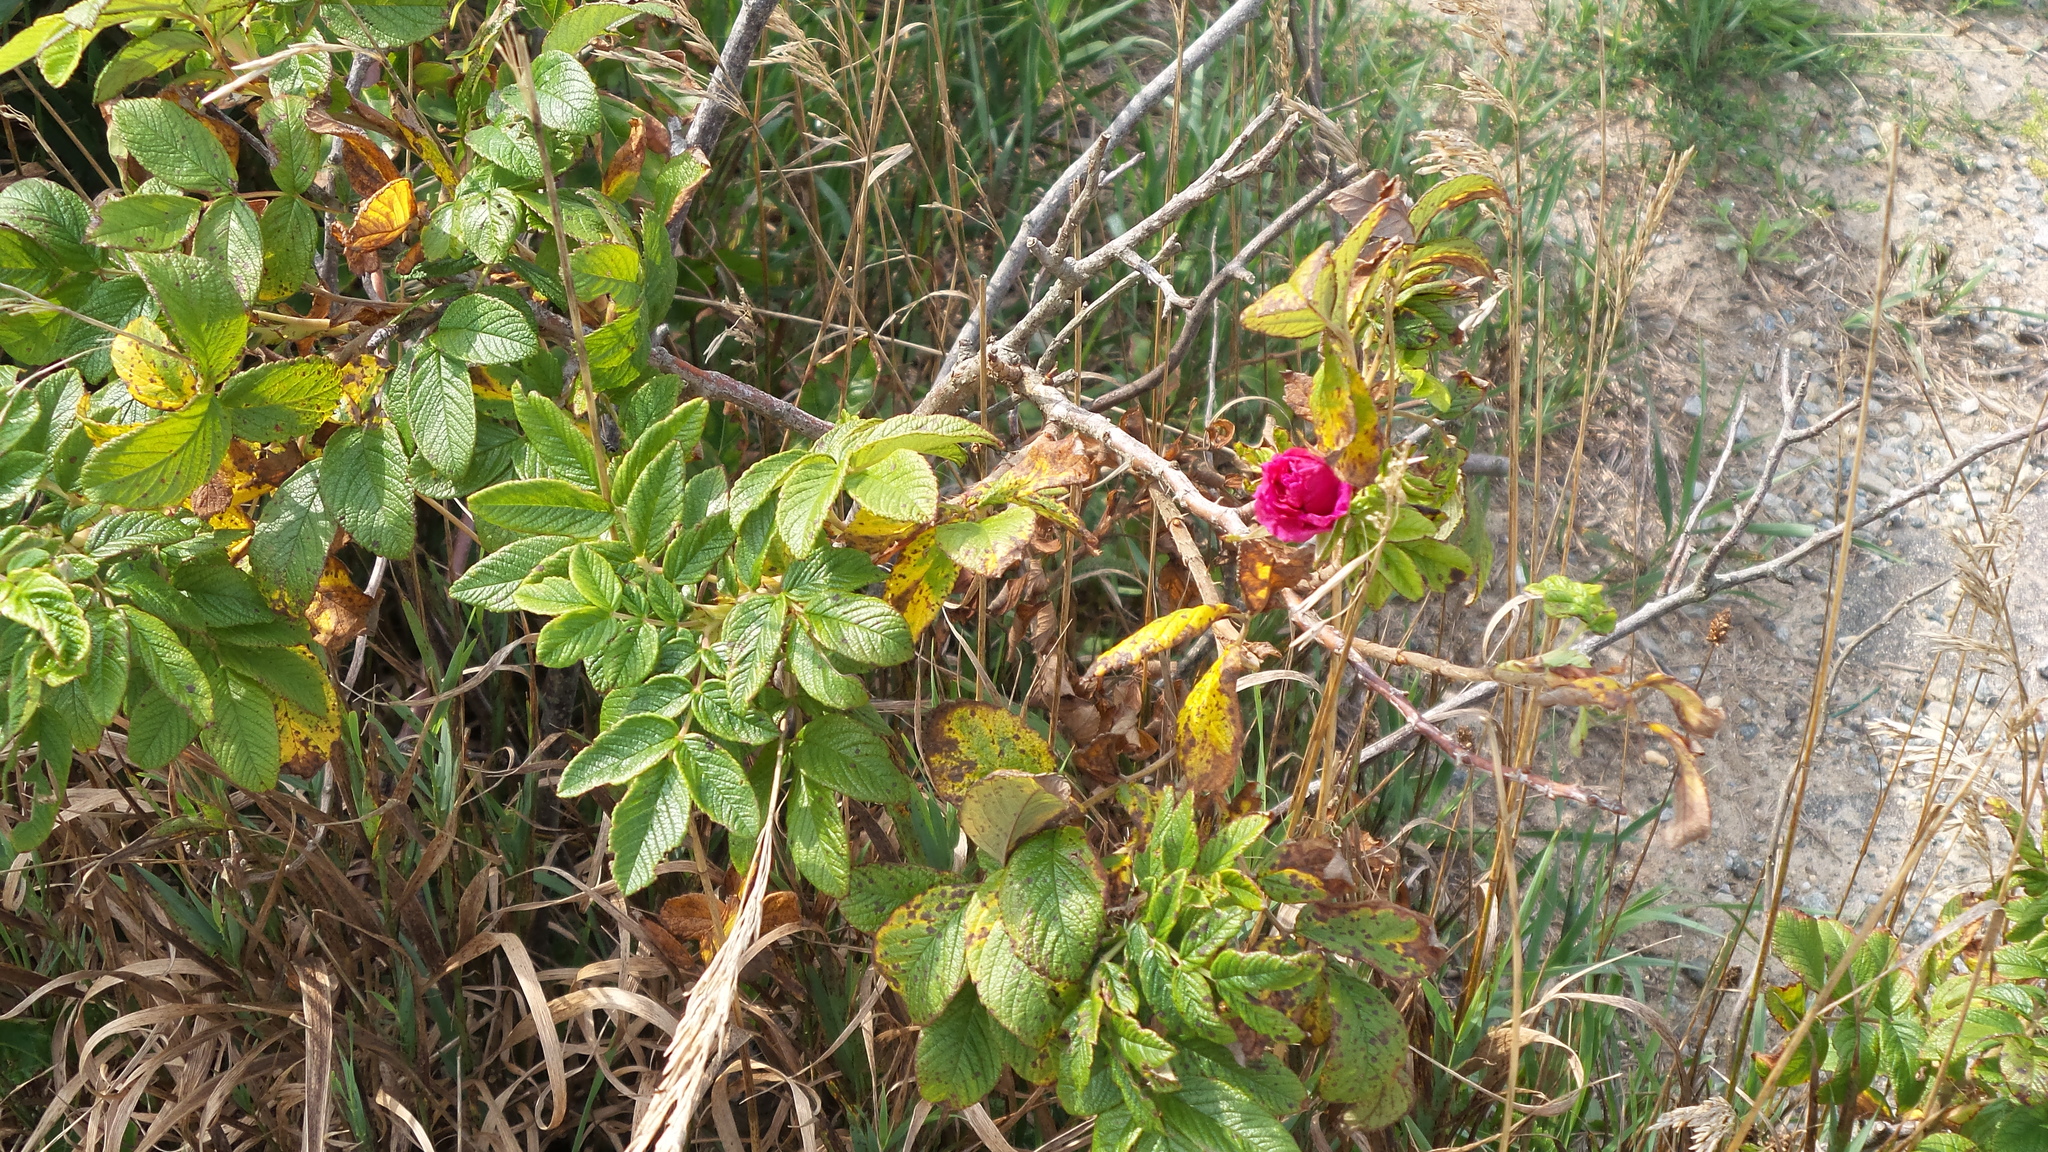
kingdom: Plantae
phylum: Tracheophyta
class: Magnoliopsida
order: Rosales
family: Rosaceae
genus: Rosa
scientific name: Rosa rugosa
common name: Japanese rose
